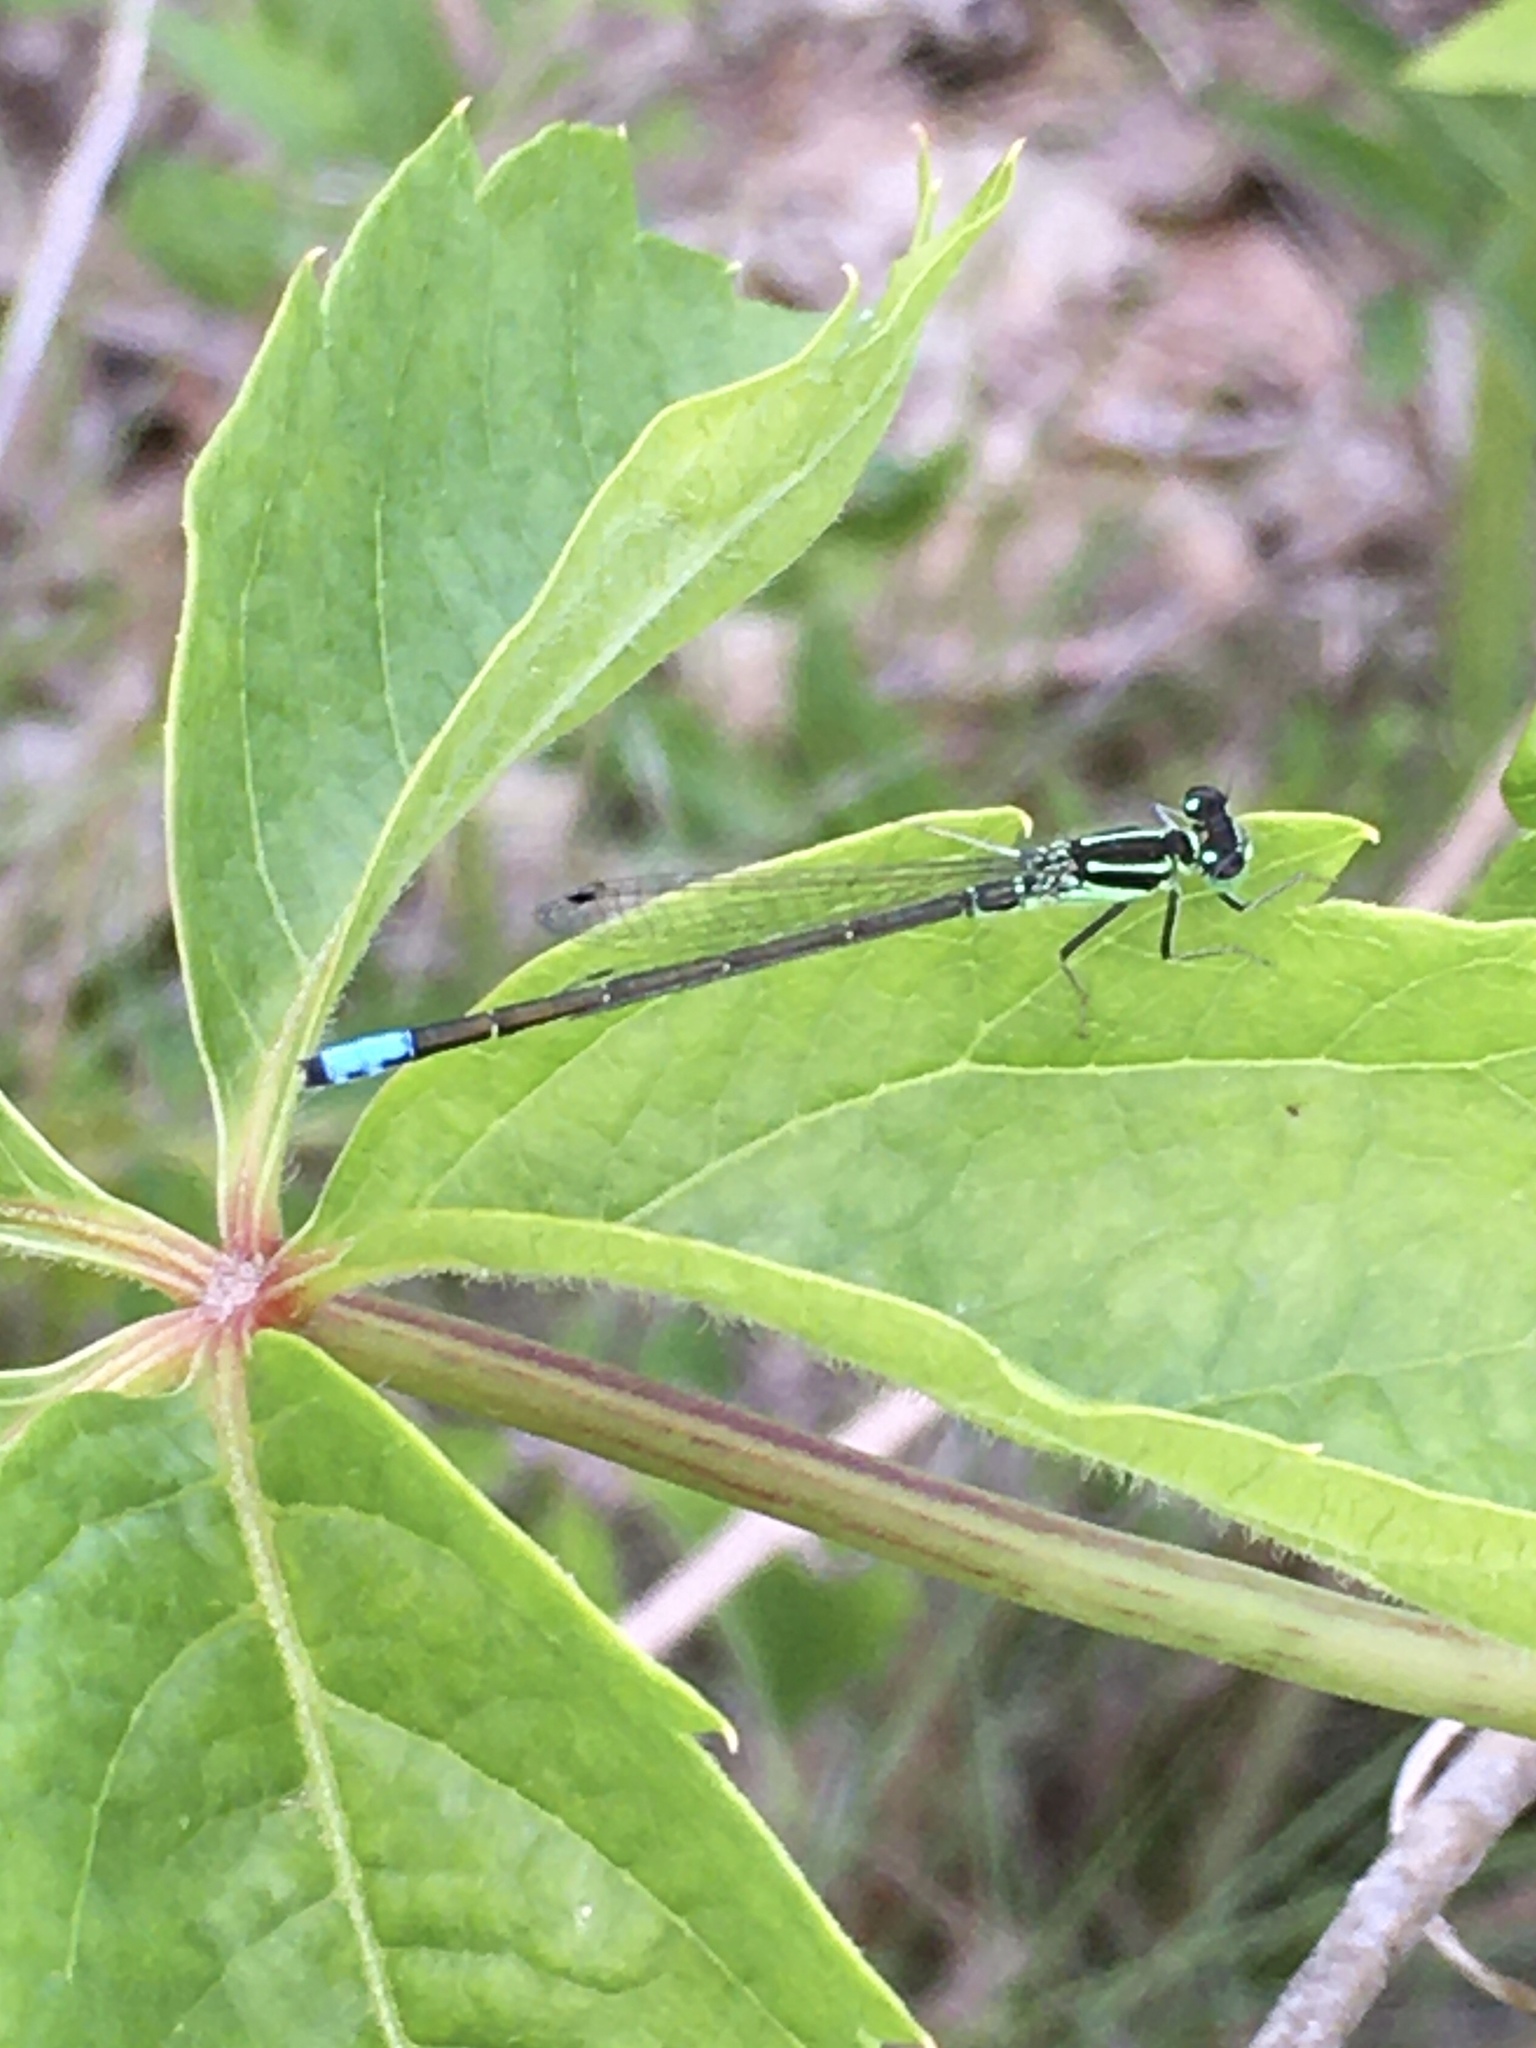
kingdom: Animalia
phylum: Arthropoda
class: Insecta
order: Odonata
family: Coenagrionidae
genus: Ischnura
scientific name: Ischnura verticalis
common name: Eastern forktail
